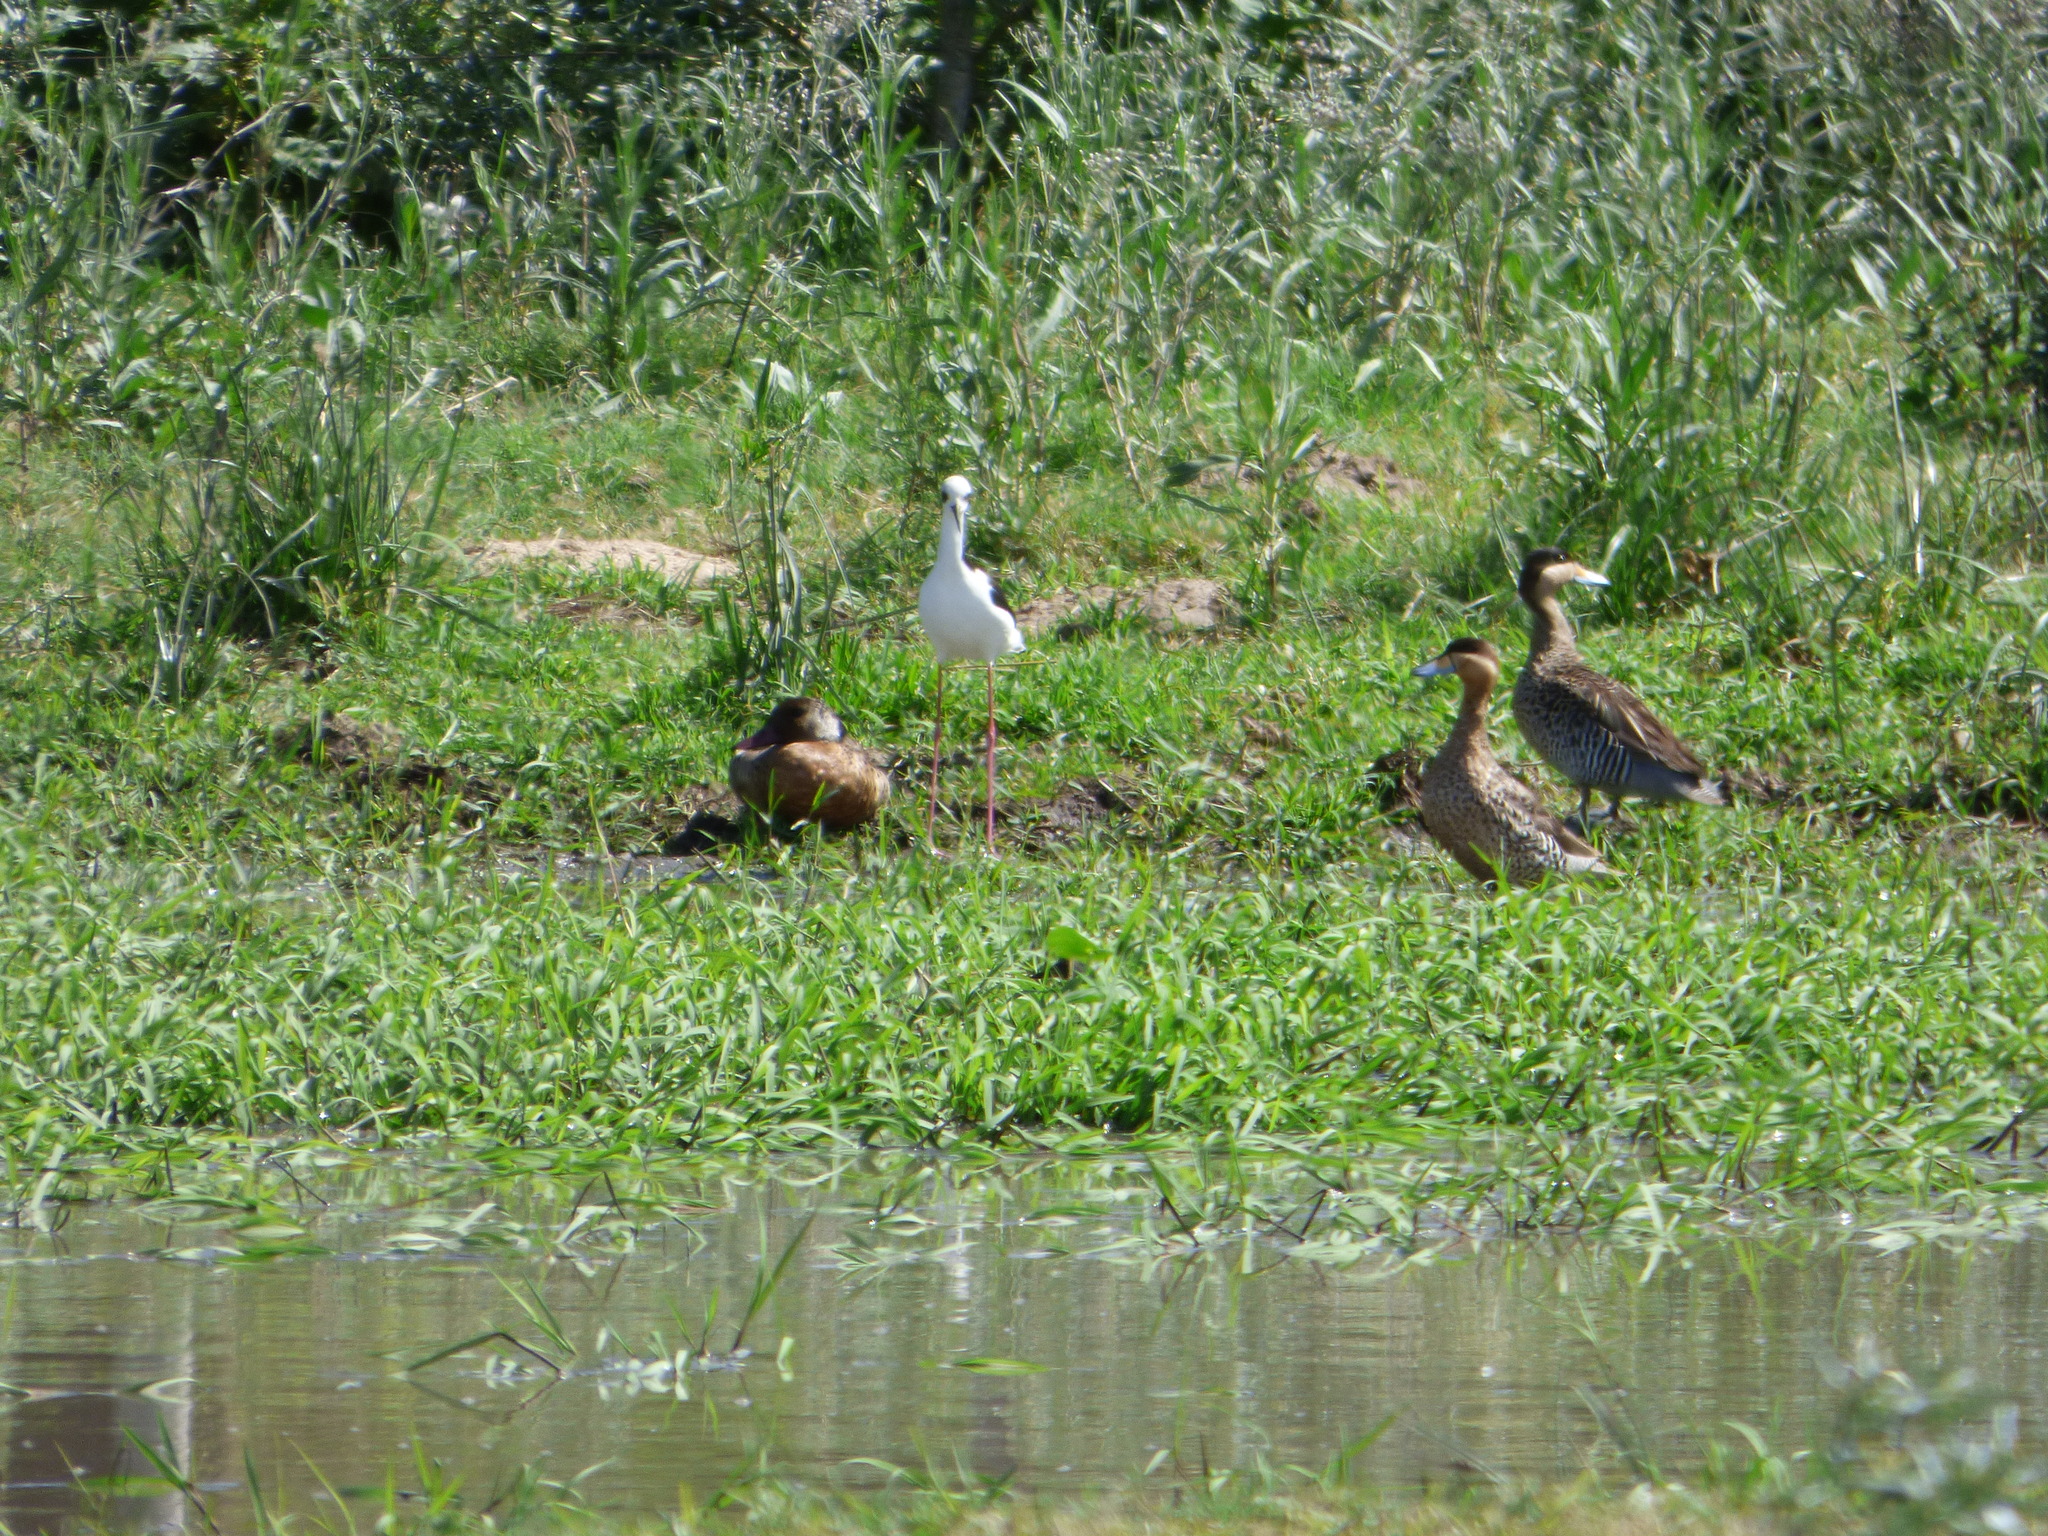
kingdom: Animalia
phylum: Chordata
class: Aves
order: Anseriformes
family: Anatidae
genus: Amazonetta
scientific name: Amazonetta brasiliensis
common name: Brazilian teal
